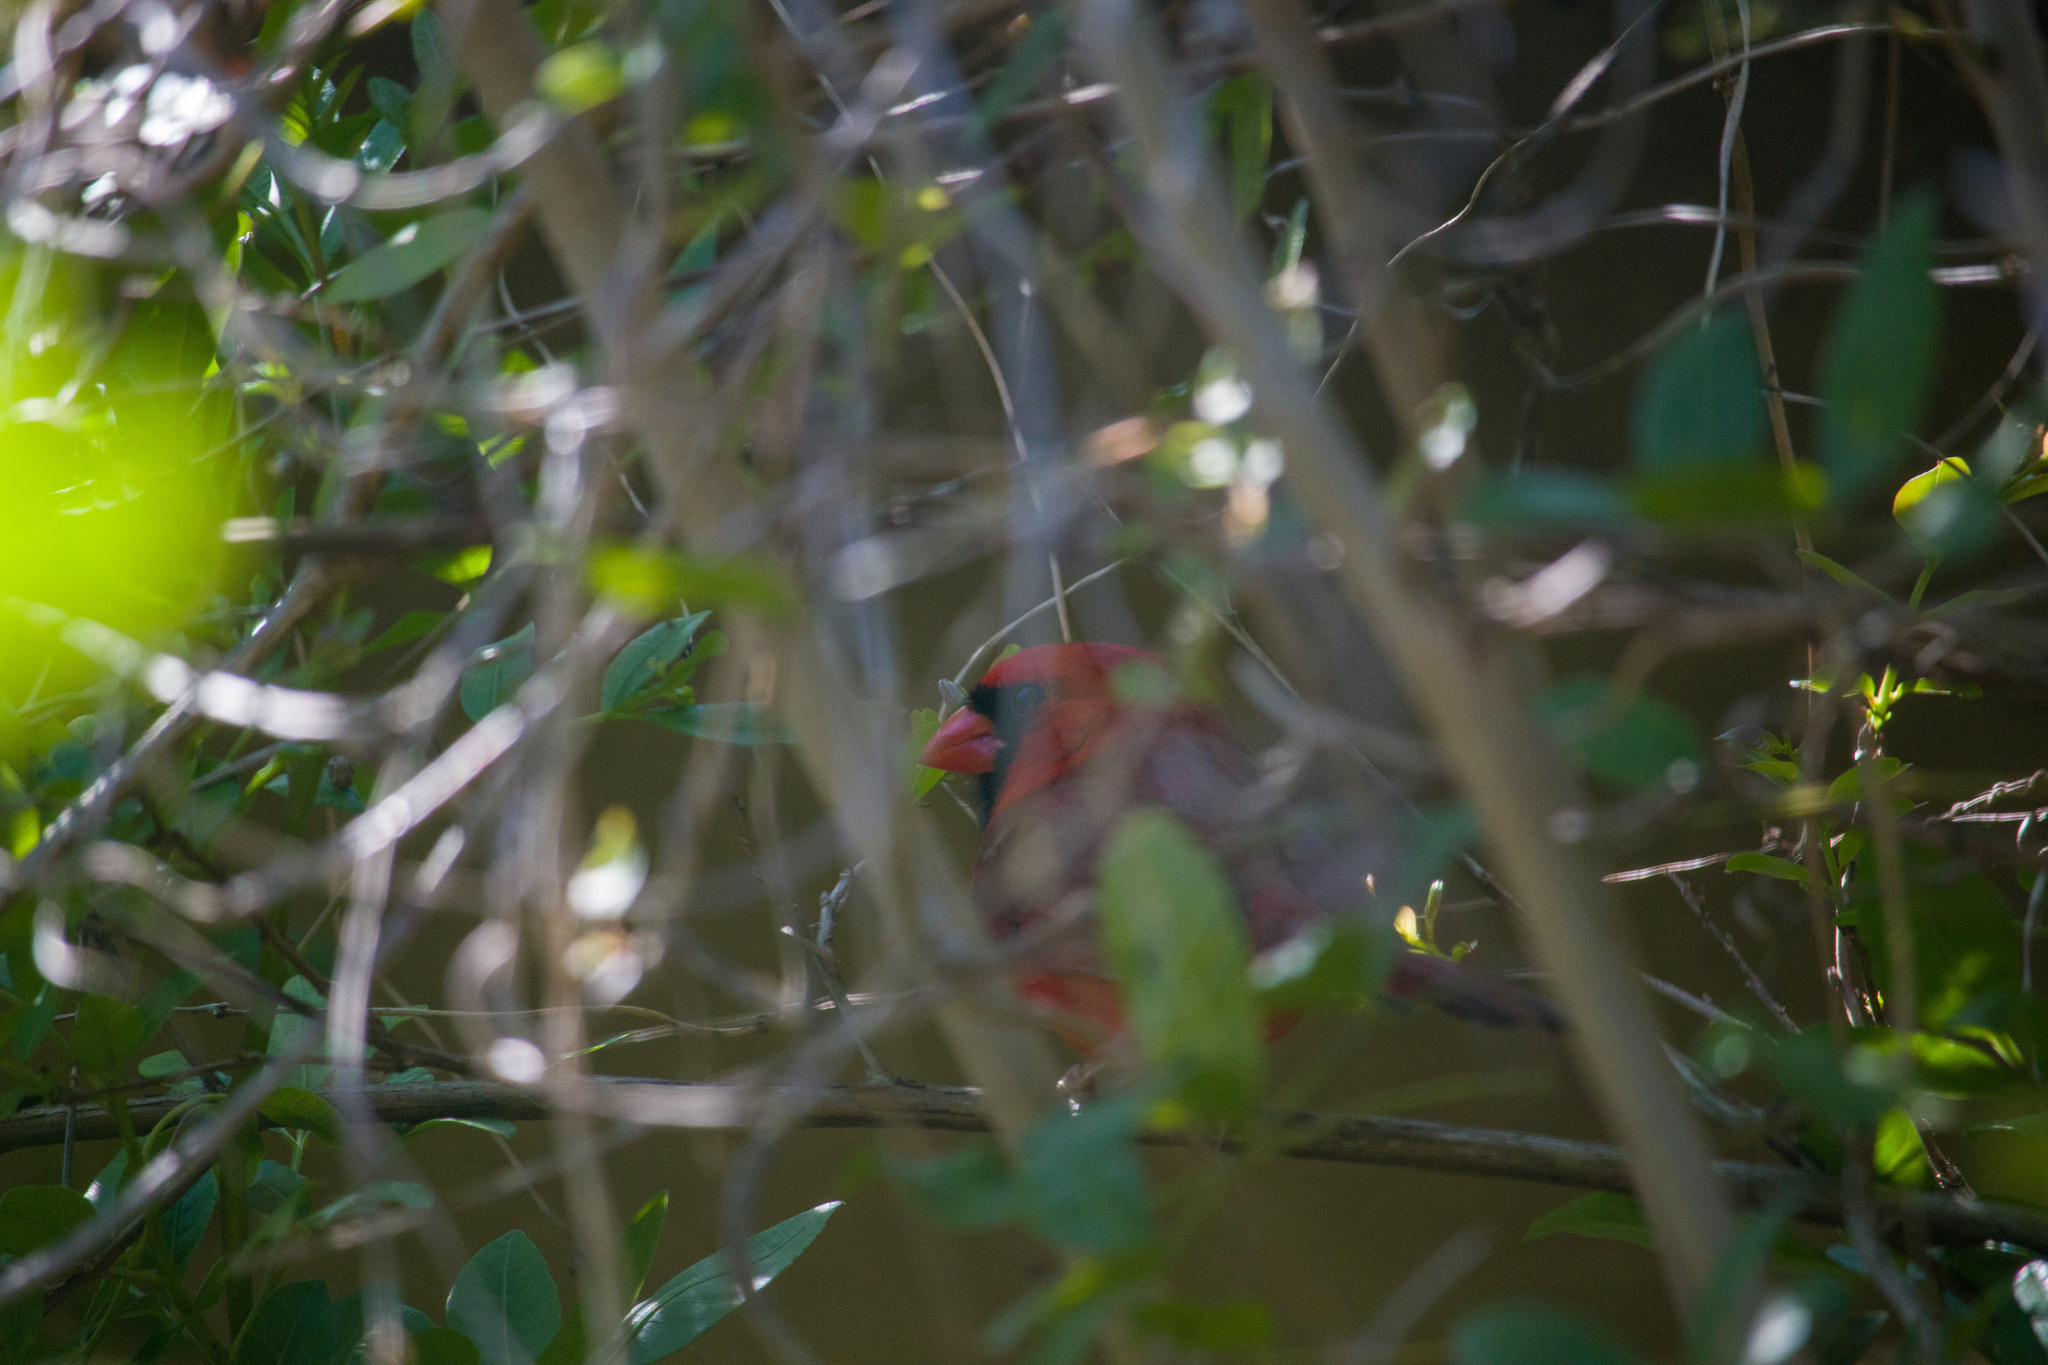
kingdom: Animalia
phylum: Chordata
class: Aves
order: Passeriformes
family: Cardinalidae
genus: Cardinalis
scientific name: Cardinalis cardinalis
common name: Northern cardinal
